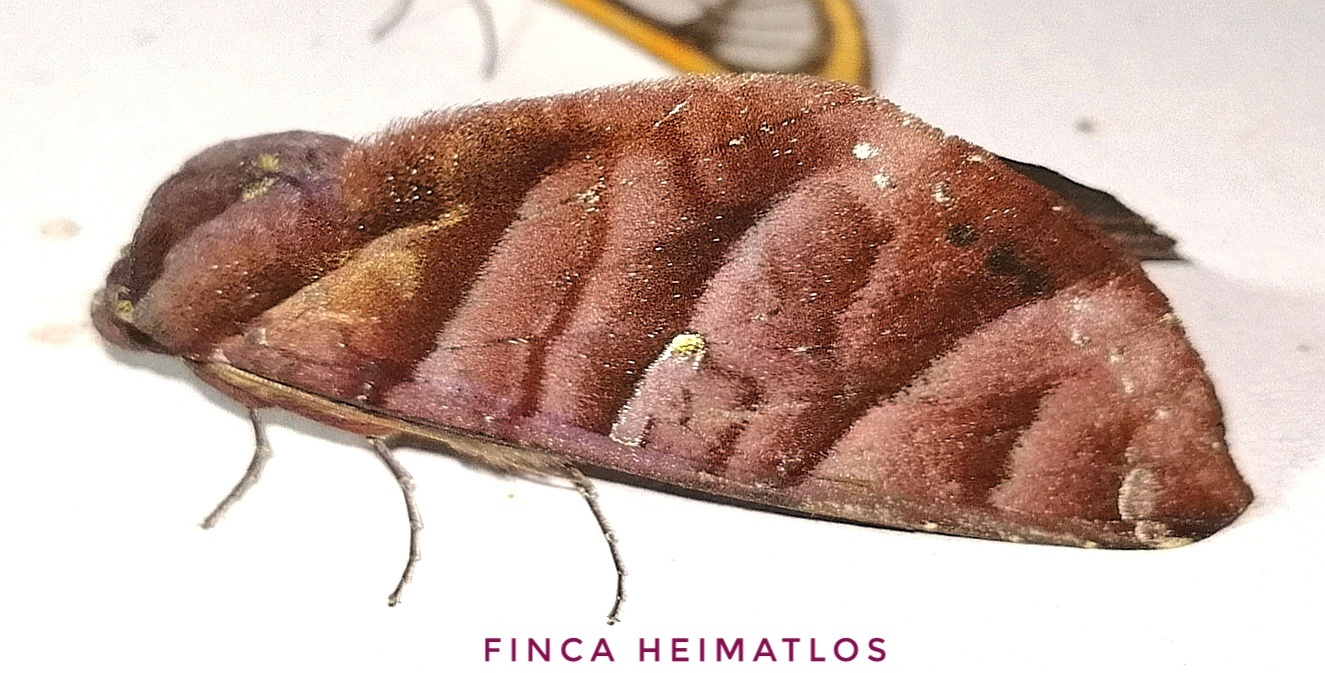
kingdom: Animalia
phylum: Arthropoda
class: Insecta
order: Lepidoptera
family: Notodontidae
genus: Hapigia
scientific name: Hapigia nodicornis
